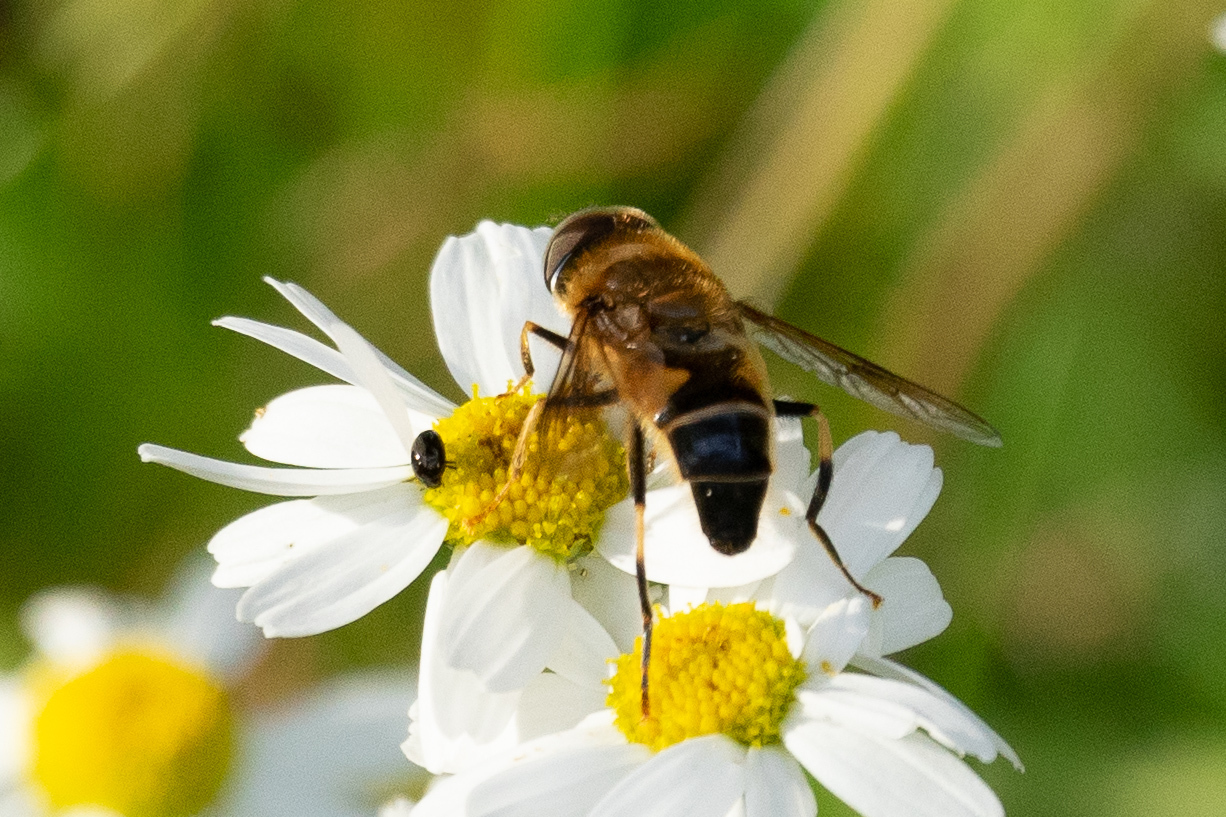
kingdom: Animalia
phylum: Arthropoda
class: Insecta
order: Diptera
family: Syrphidae
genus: Eristalis
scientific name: Eristalis pertinax
